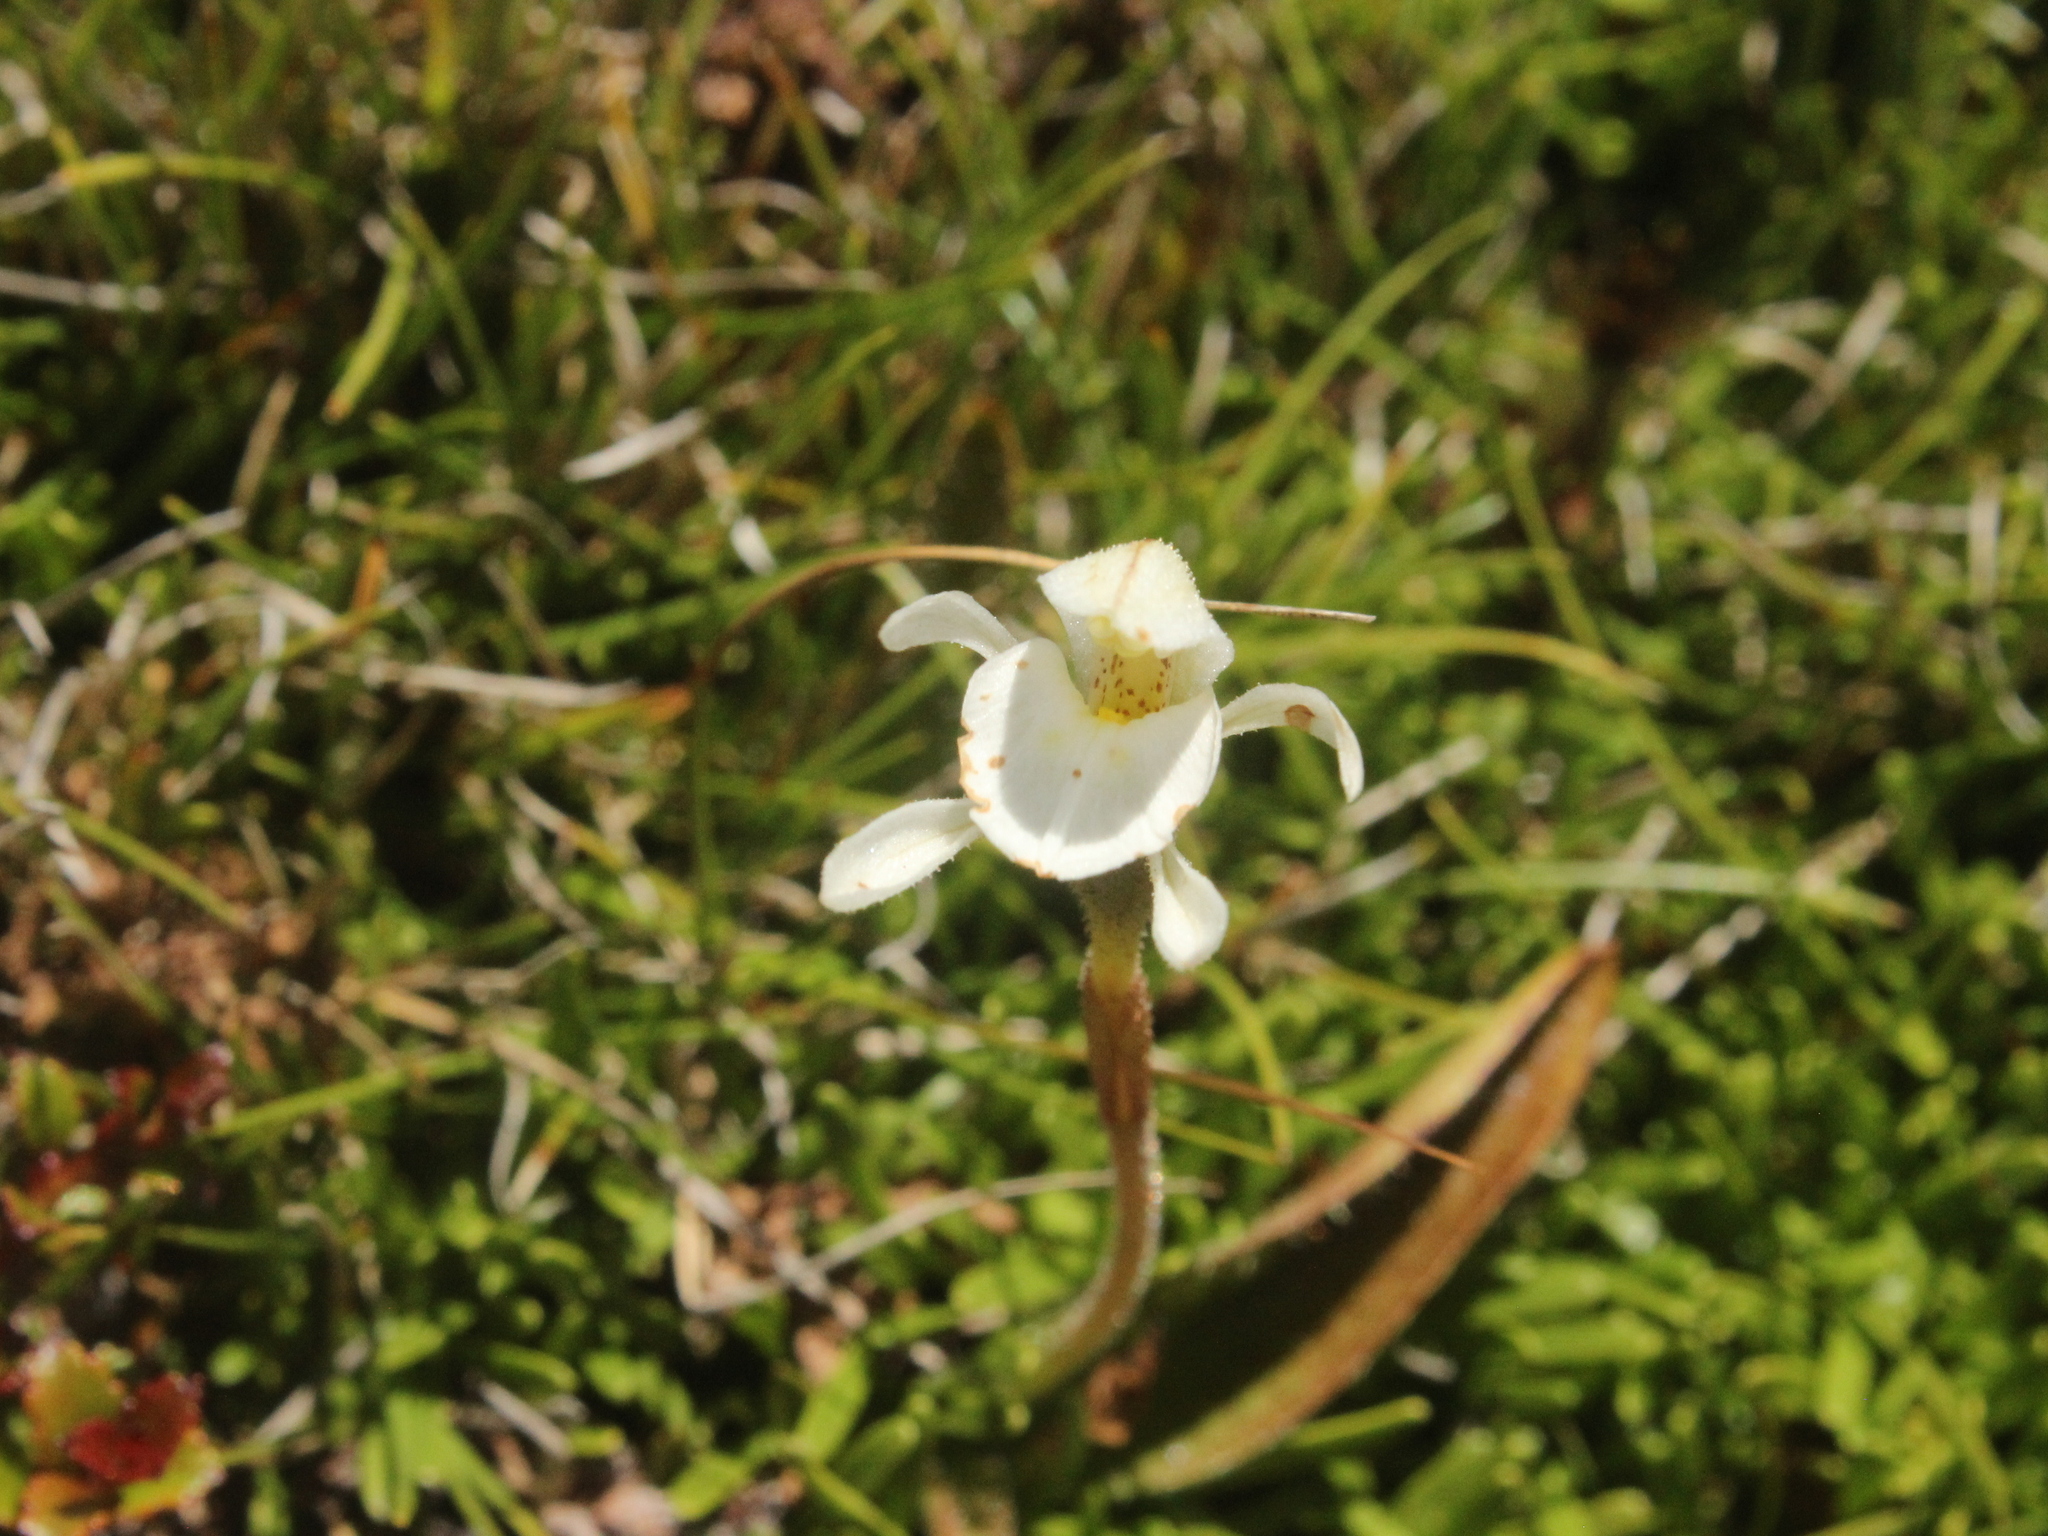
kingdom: Plantae
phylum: Tracheophyta
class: Liliopsida
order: Asparagales
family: Orchidaceae
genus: Aporostylis
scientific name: Aporostylis bifolia
